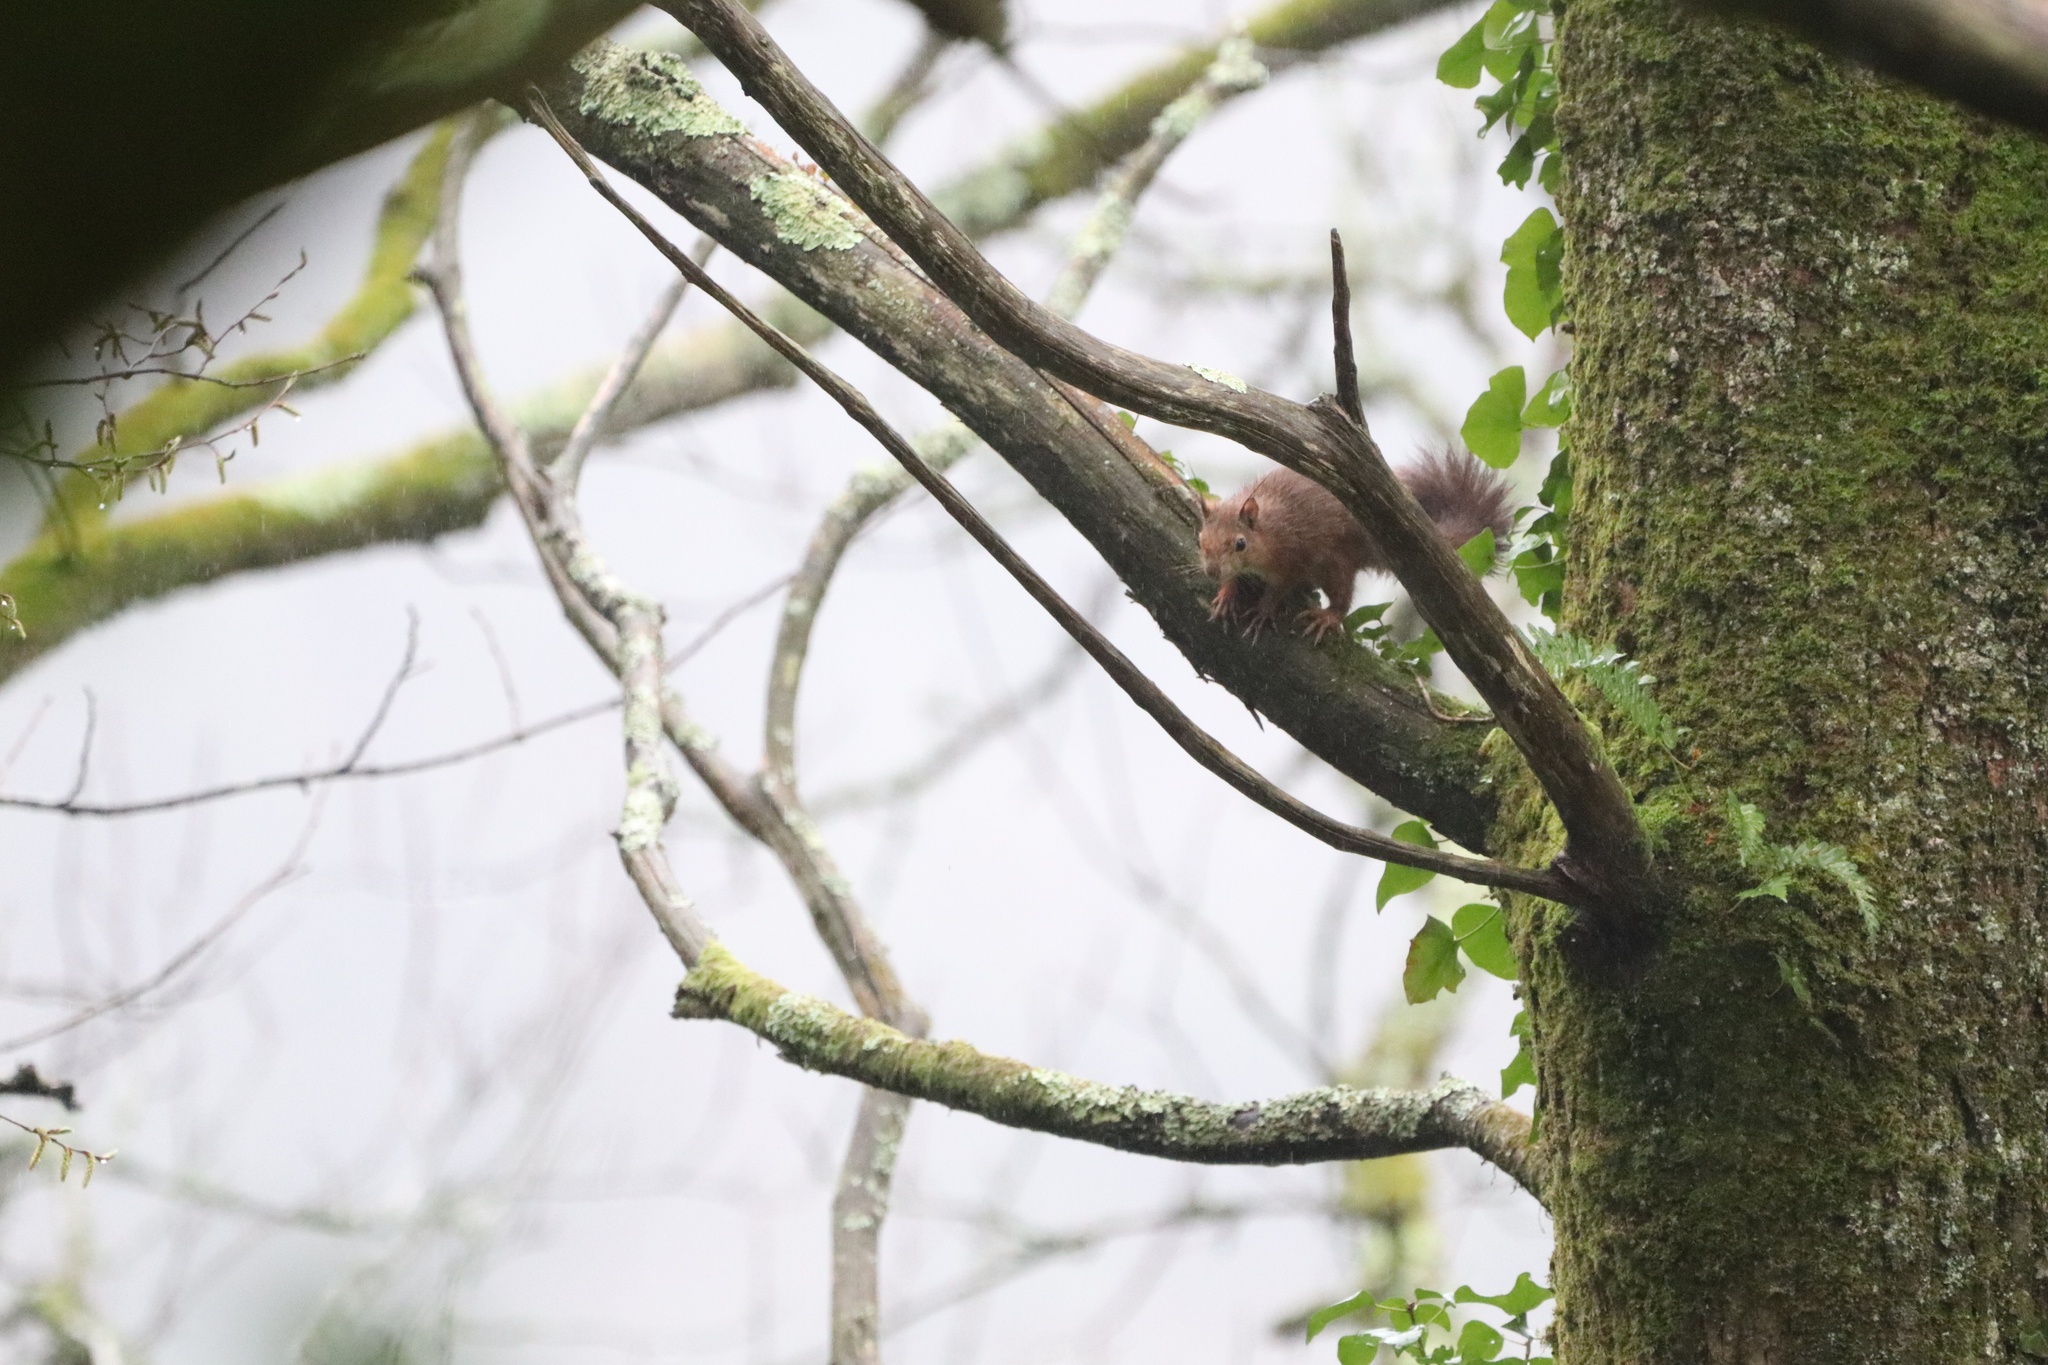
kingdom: Animalia
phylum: Chordata
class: Mammalia
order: Rodentia
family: Sciuridae
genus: Sciurus
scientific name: Sciurus vulgaris
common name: Eurasian red squirrel
